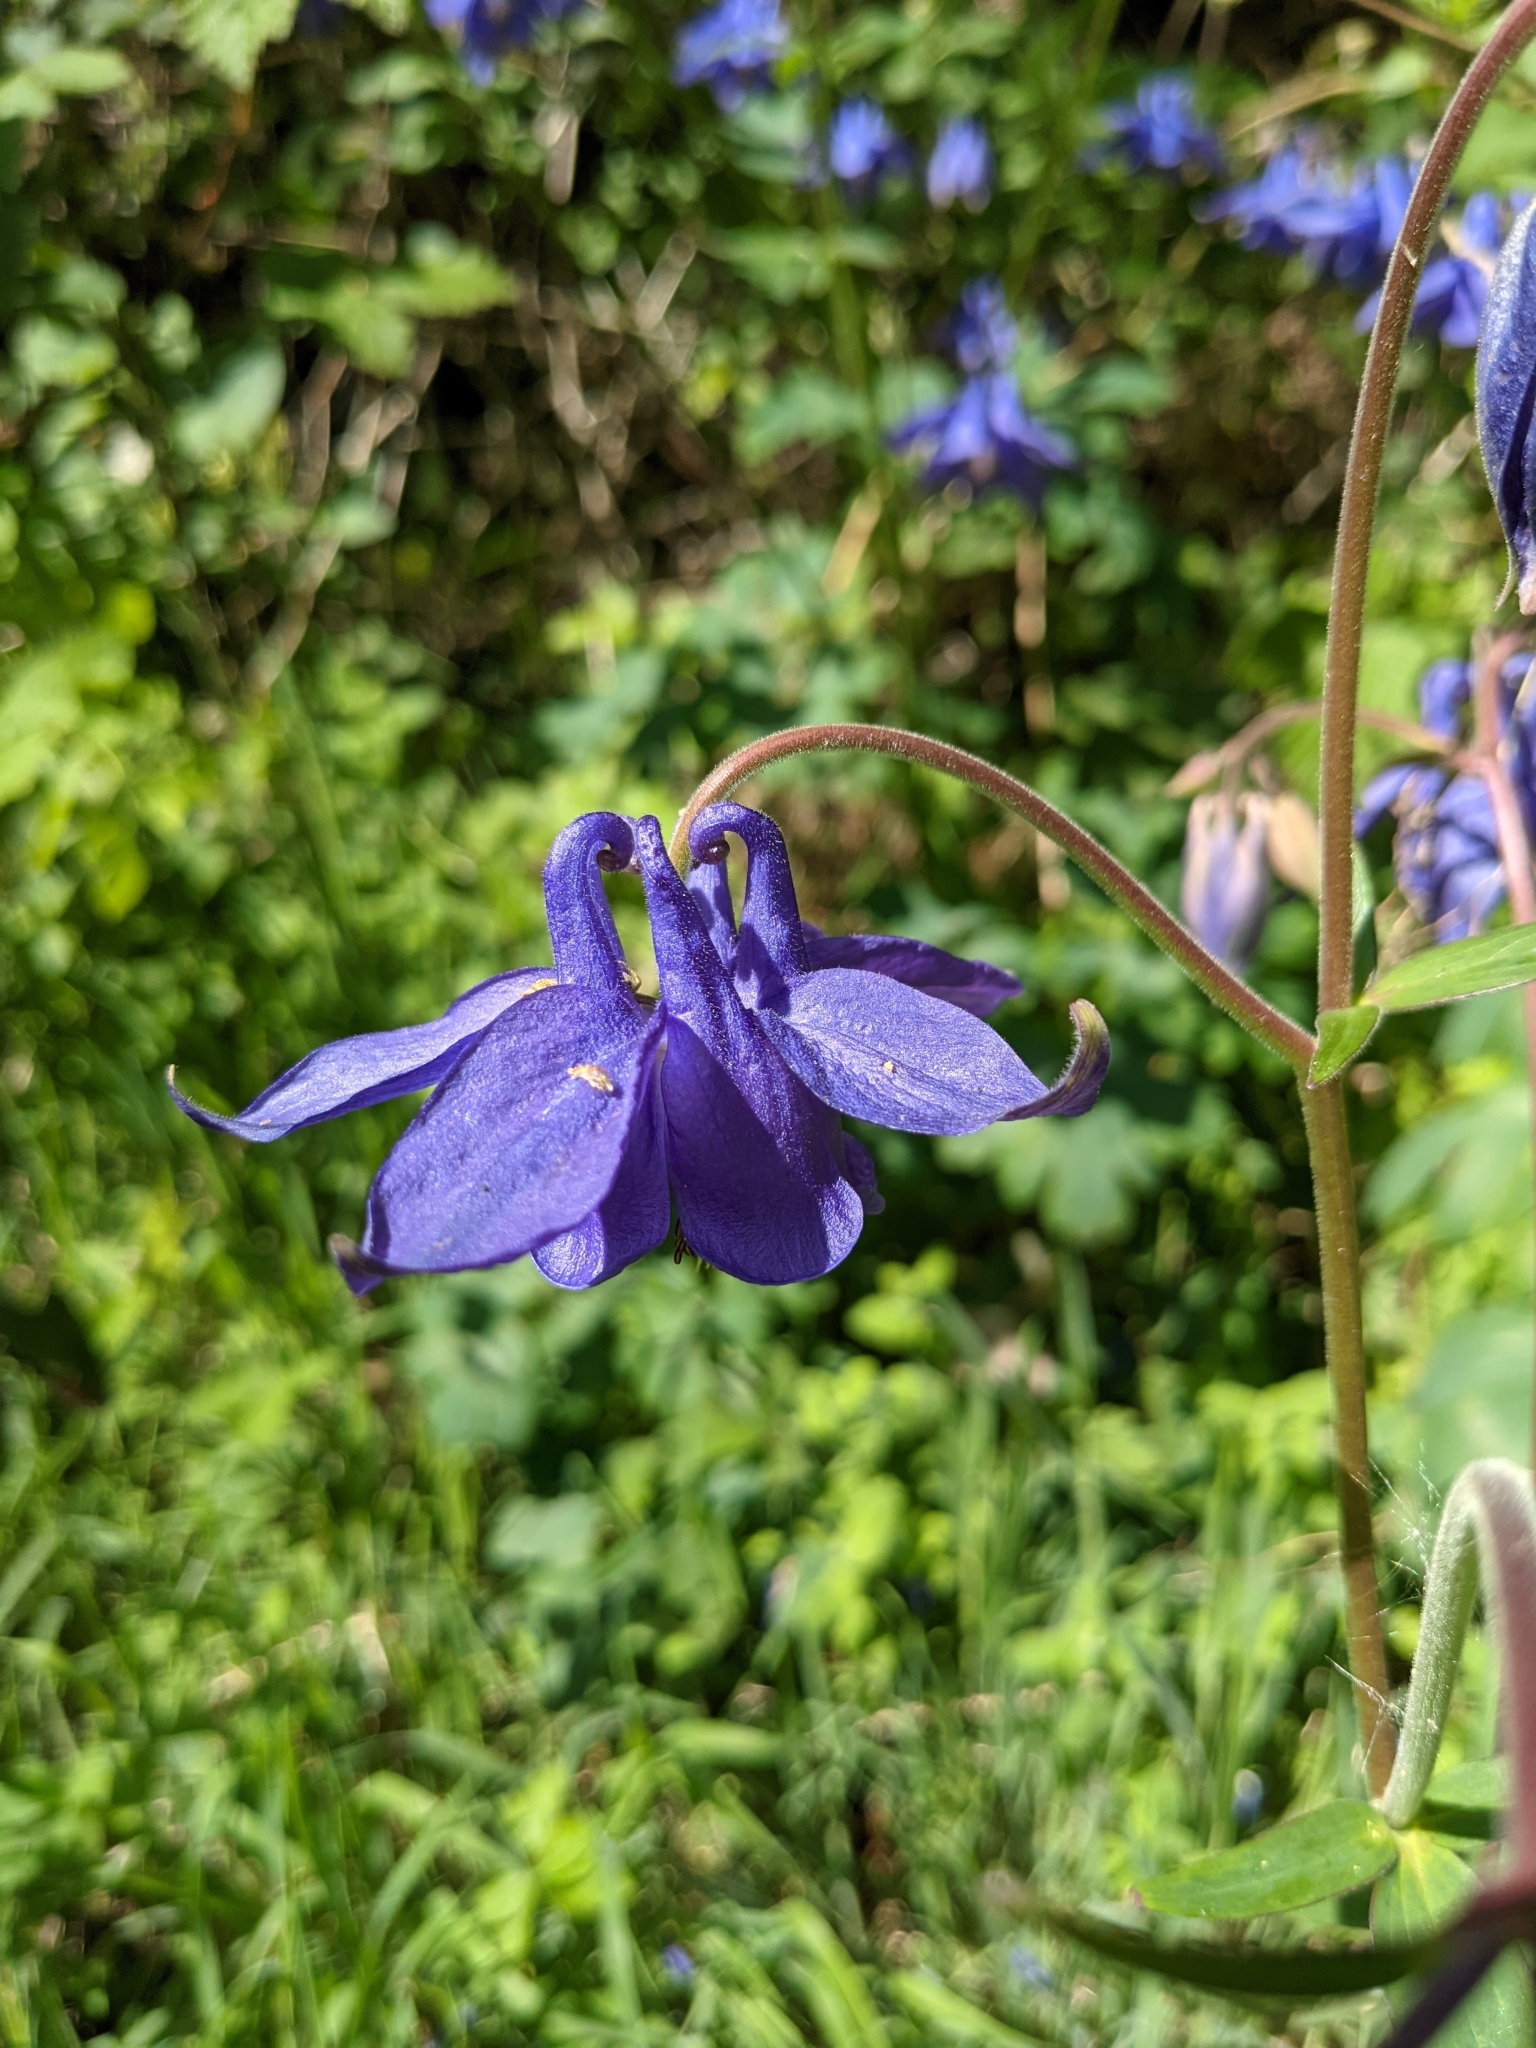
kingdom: Plantae
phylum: Tracheophyta
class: Magnoliopsida
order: Ranunculales
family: Ranunculaceae
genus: Aquilegia
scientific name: Aquilegia vulgaris
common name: Columbine
